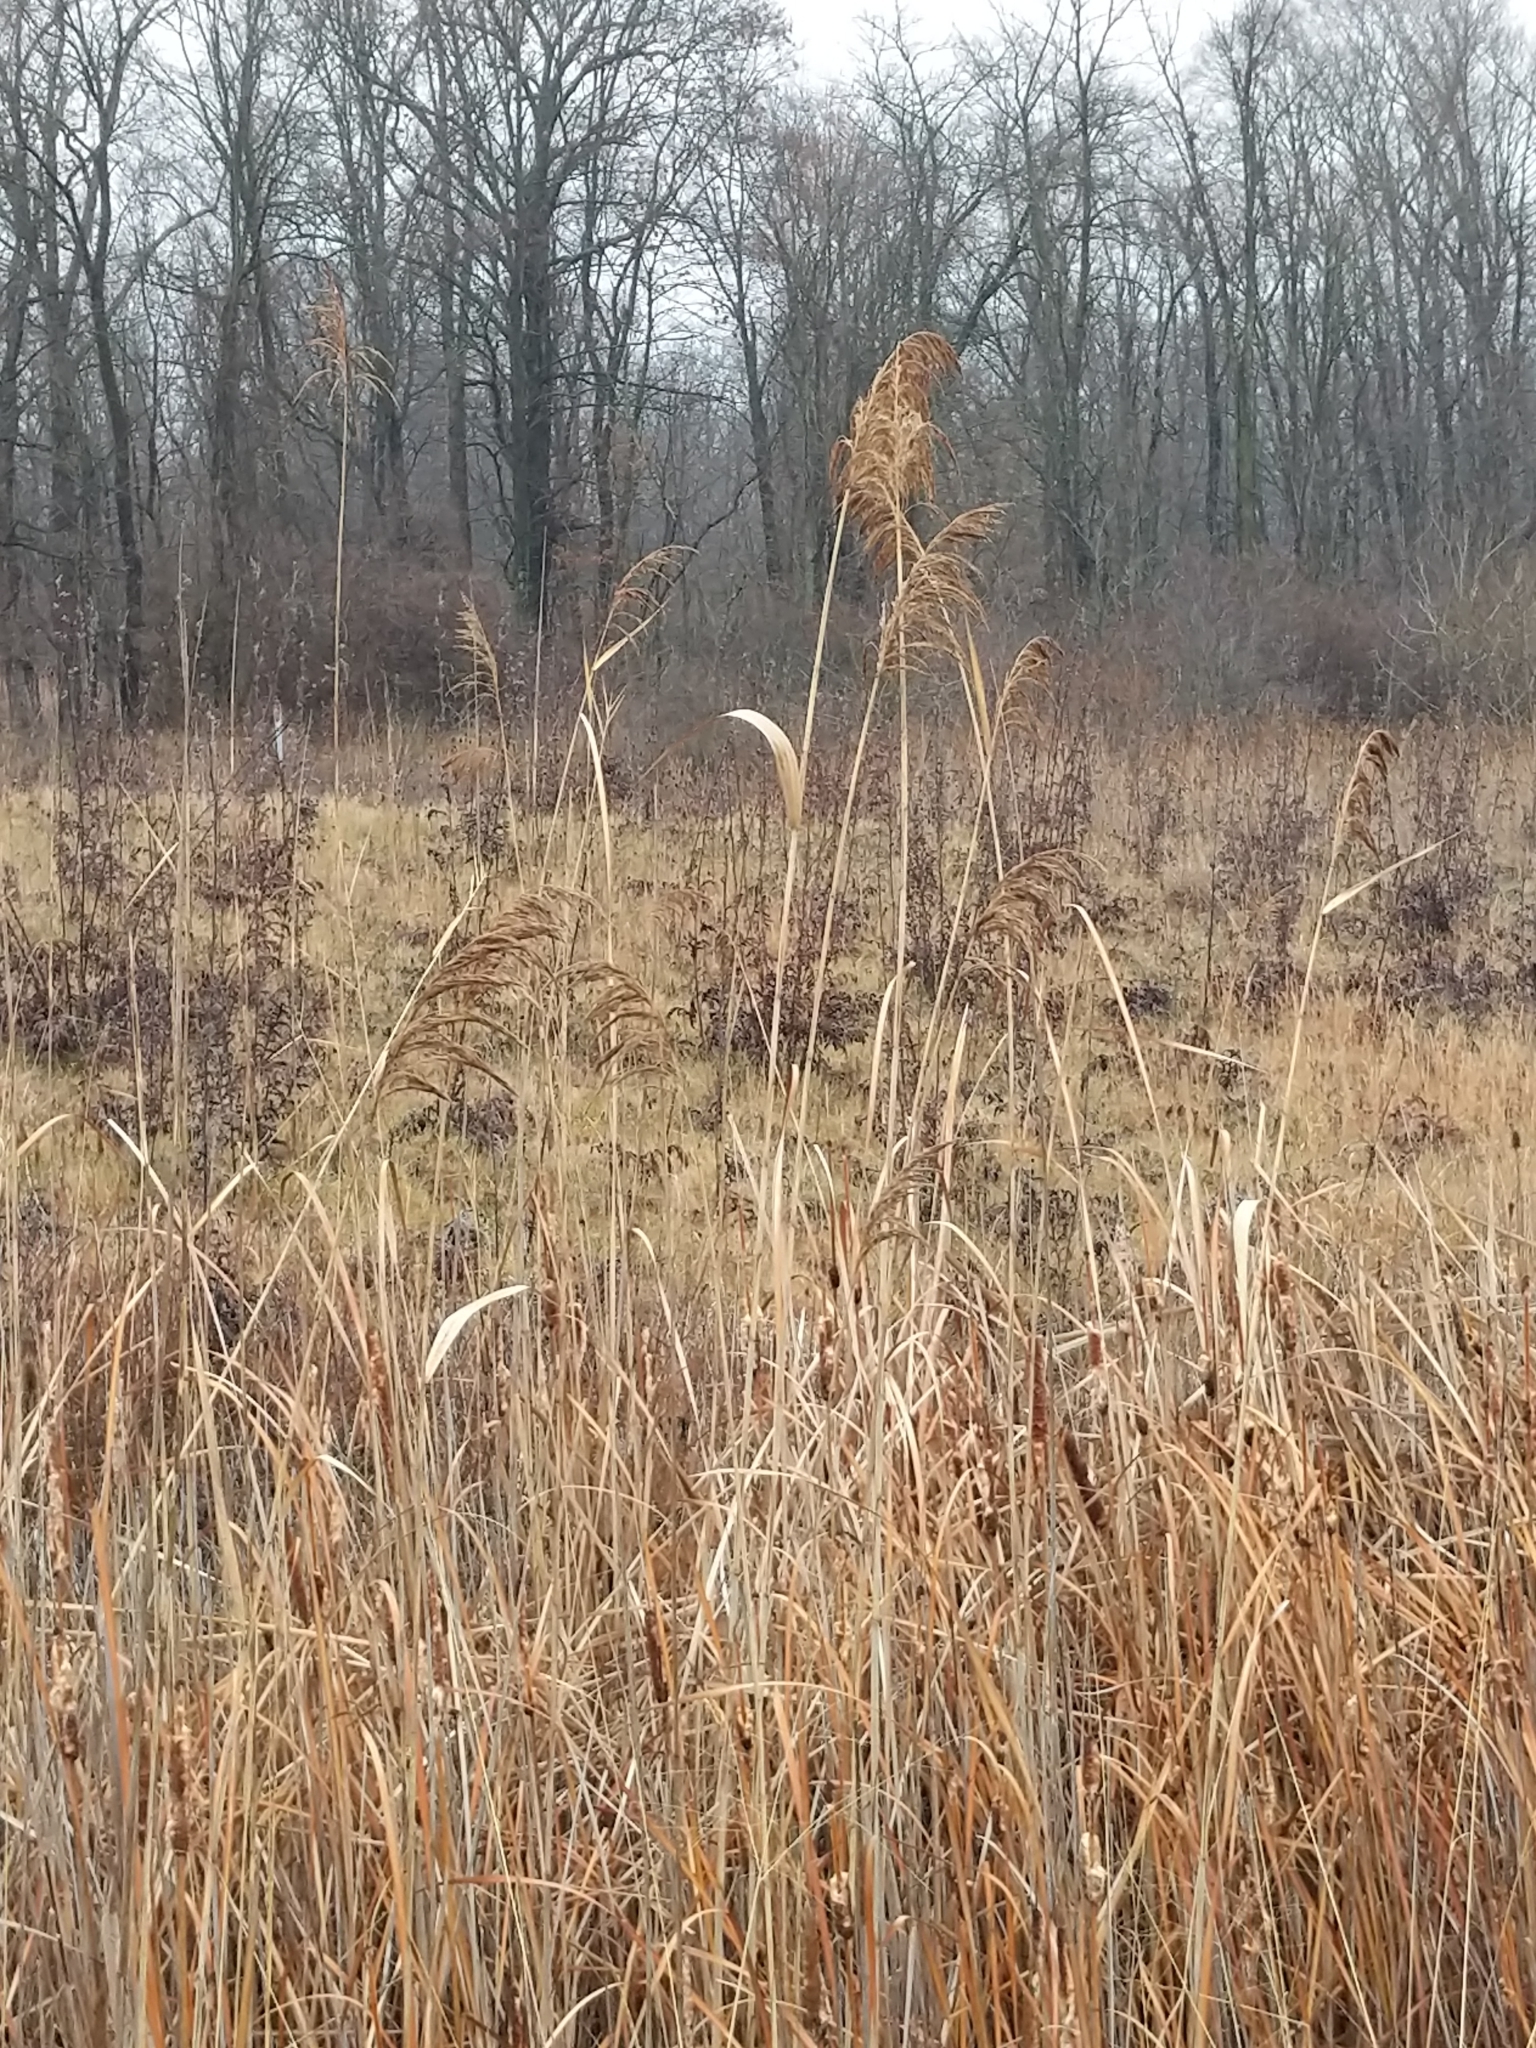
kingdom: Plantae
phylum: Tracheophyta
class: Liliopsida
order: Poales
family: Poaceae
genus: Phragmites
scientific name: Phragmites australis
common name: Common reed
